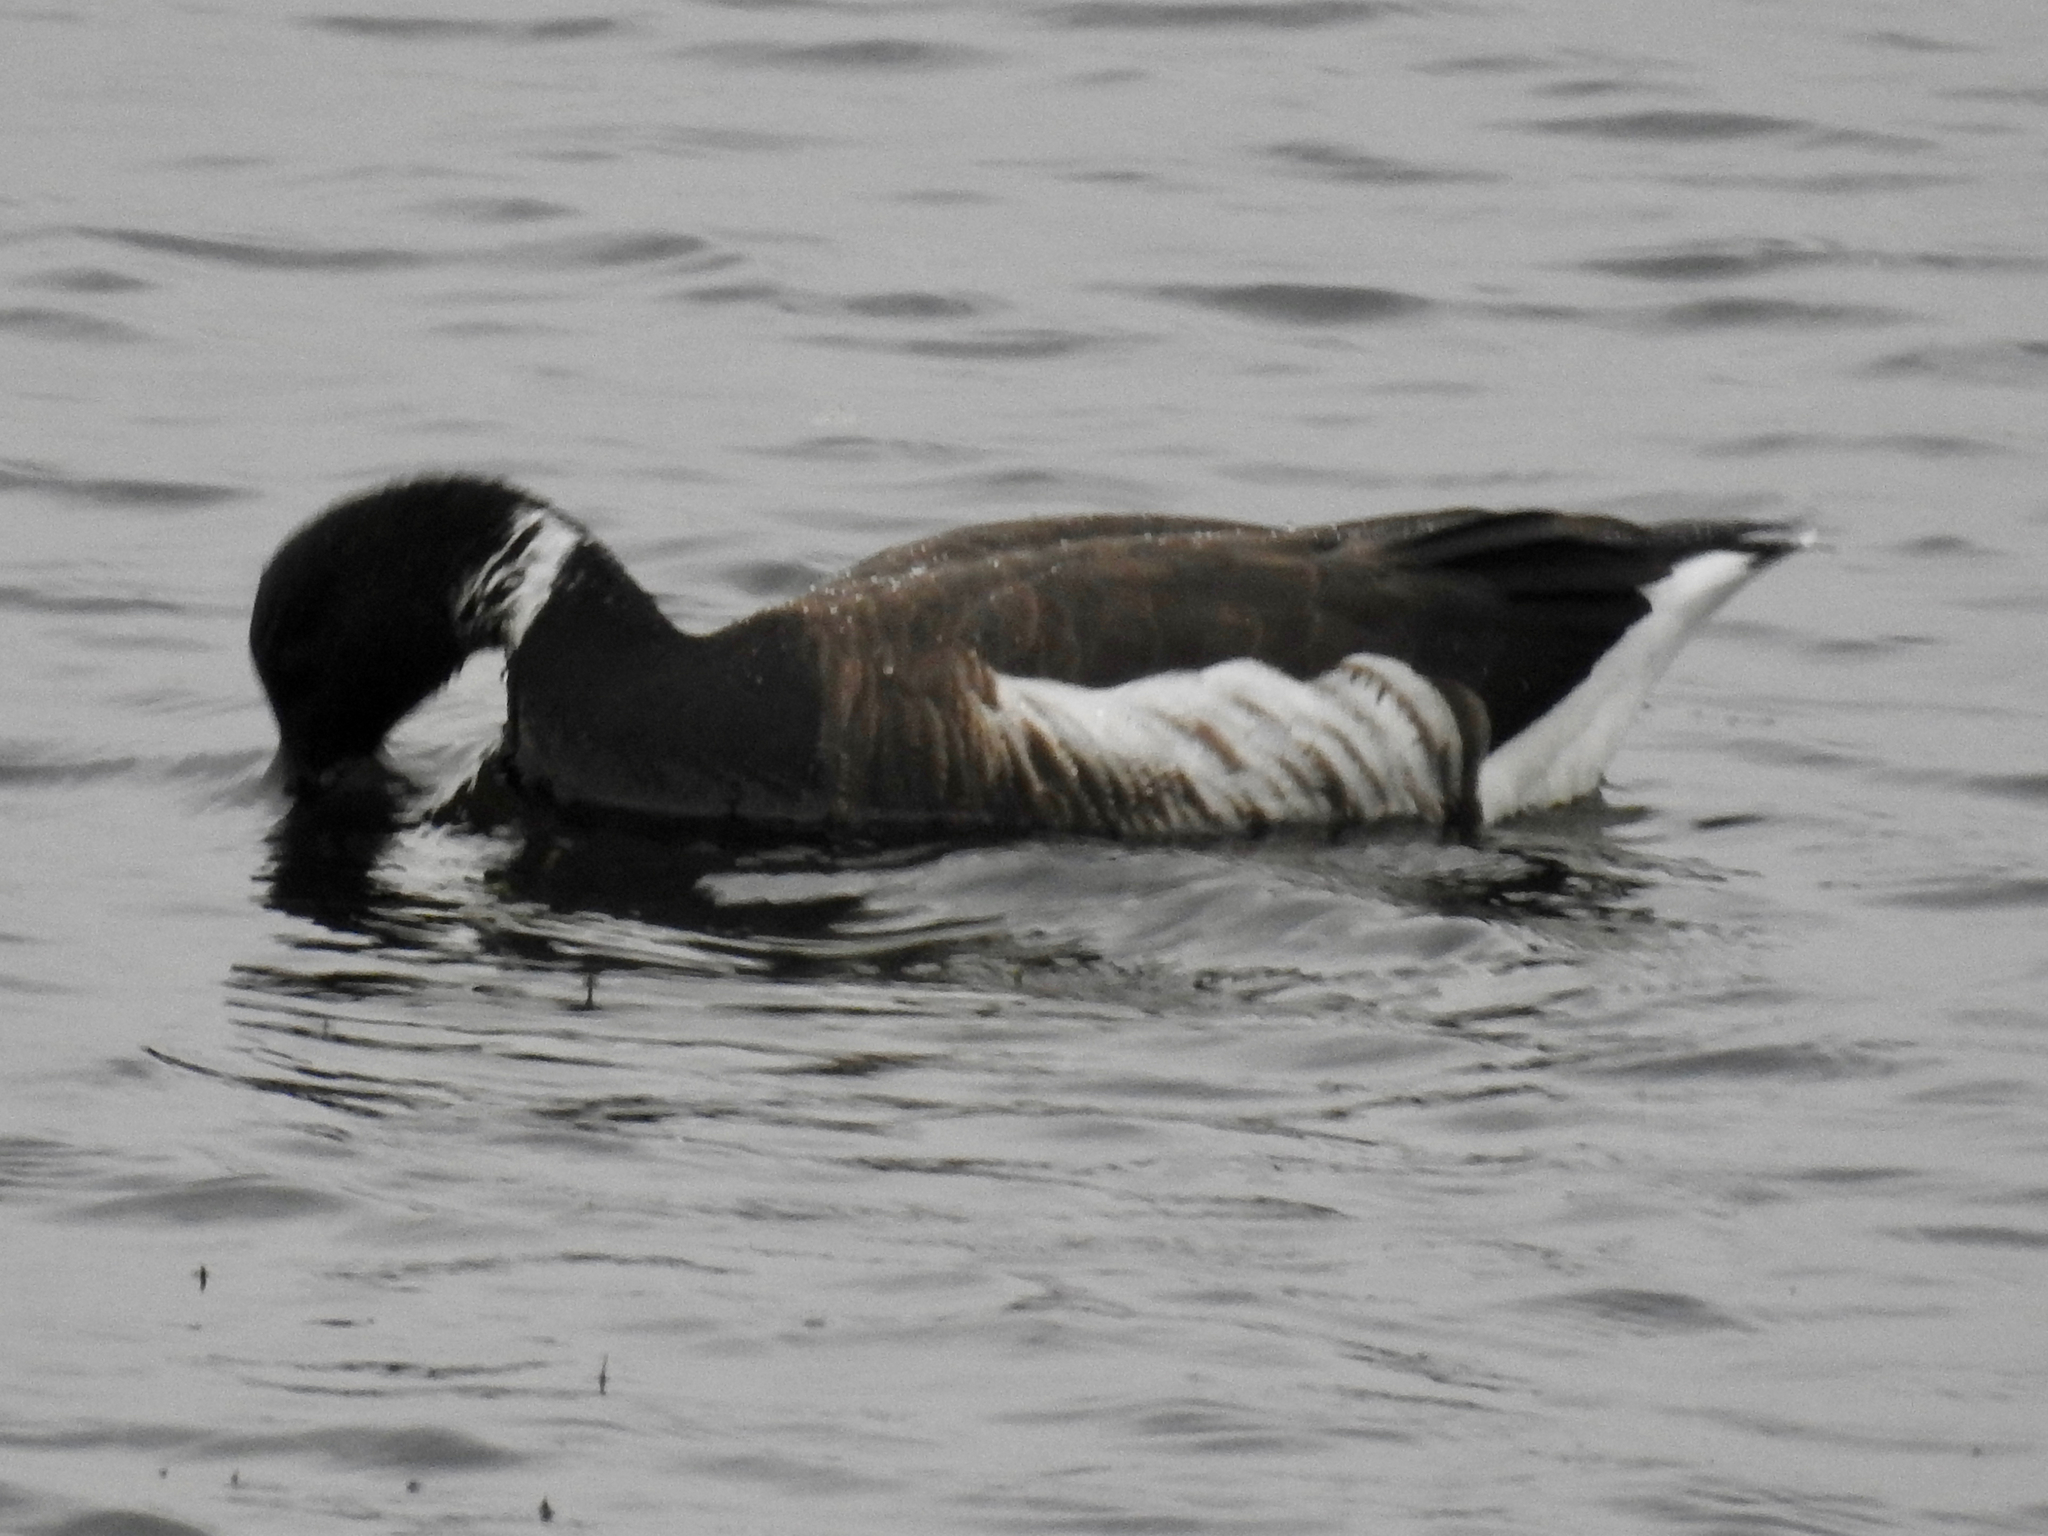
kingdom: Animalia
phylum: Chordata
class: Aves
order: Anseriformes
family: Anatidae
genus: Branta
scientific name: Branta bernicla
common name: Brant goose
